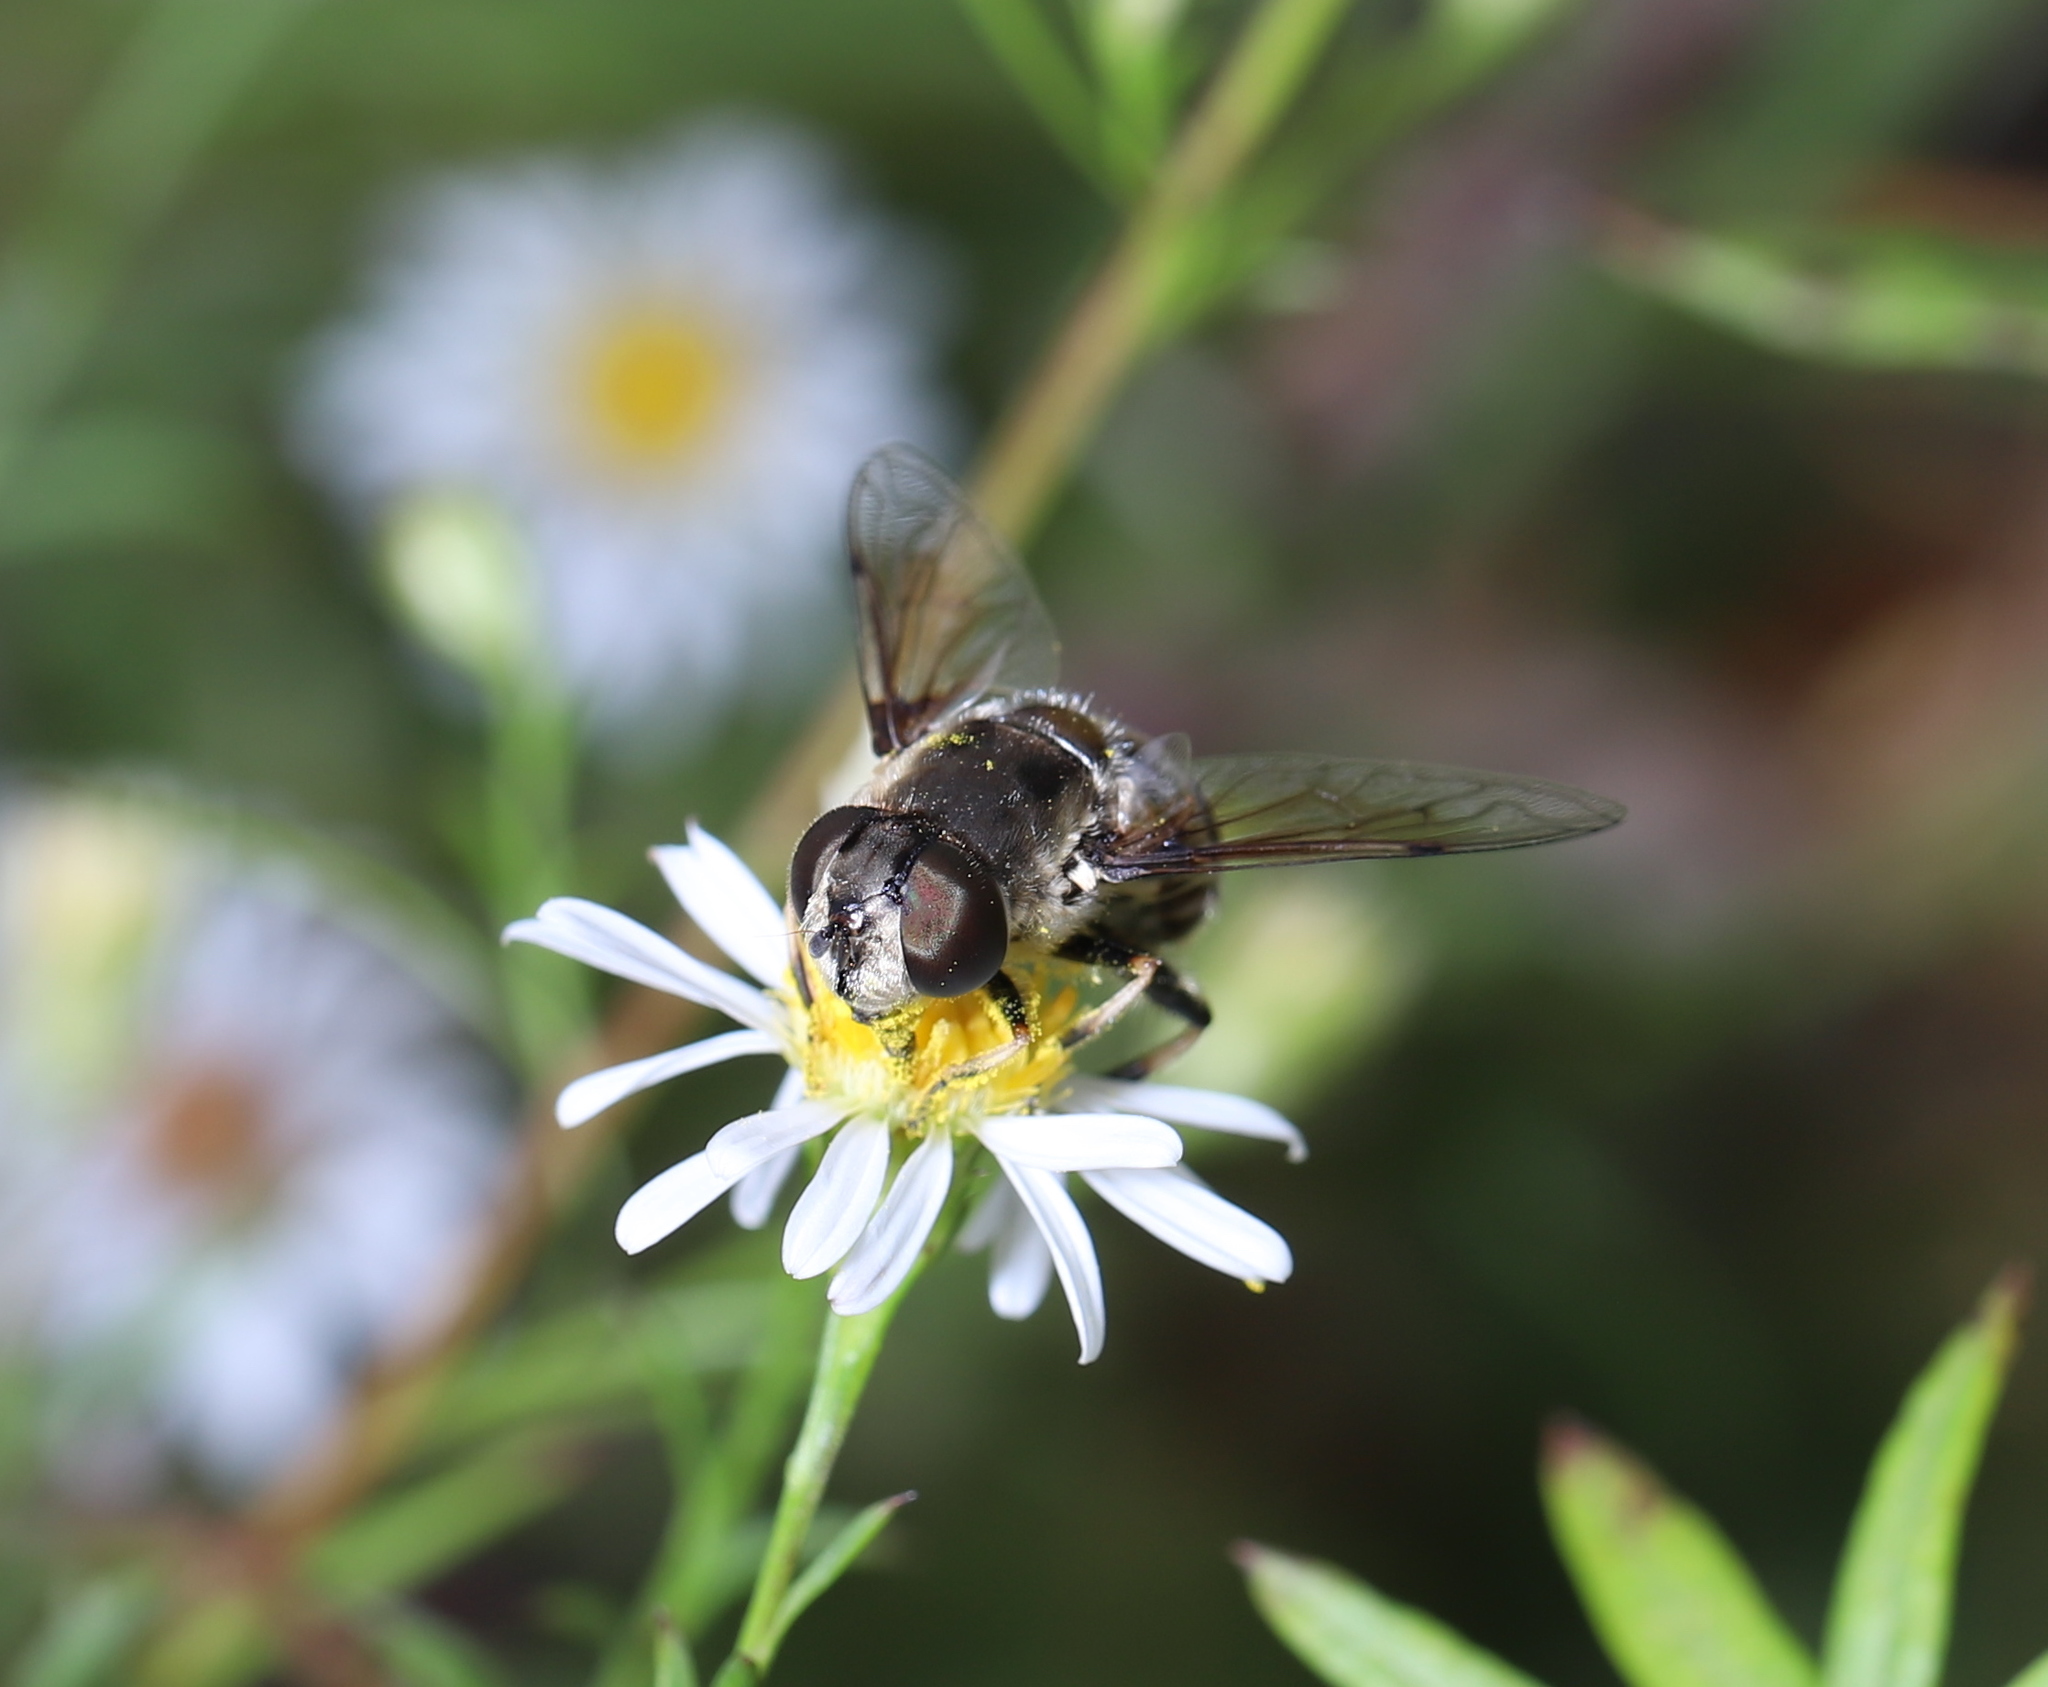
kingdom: Animalia
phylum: Arthropoda
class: Insecta
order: Diptera
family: Syrphidae
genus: Eristalis
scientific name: Eristalis dimidiata
